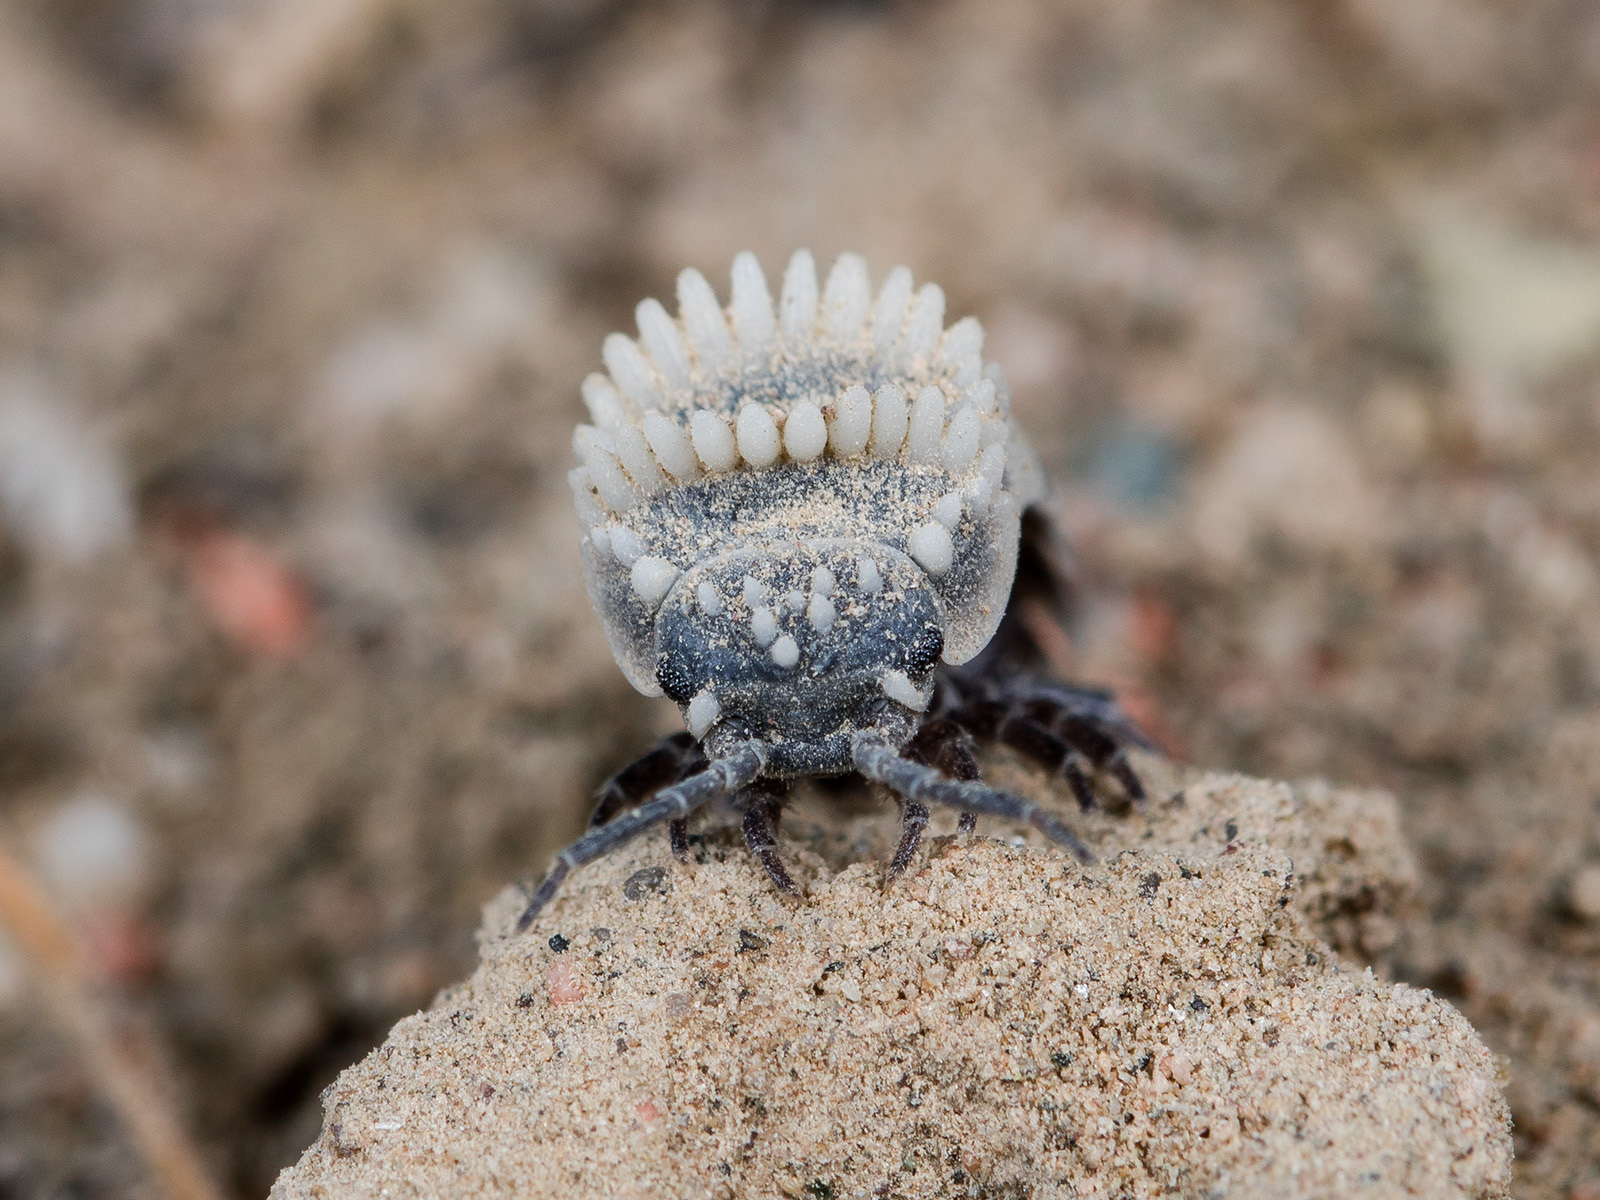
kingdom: Animalia
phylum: Arthropoda
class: Malacostraca
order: Isopoda
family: Agnaridae
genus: Hemilepistus
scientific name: Hemilepistus crenulatus
